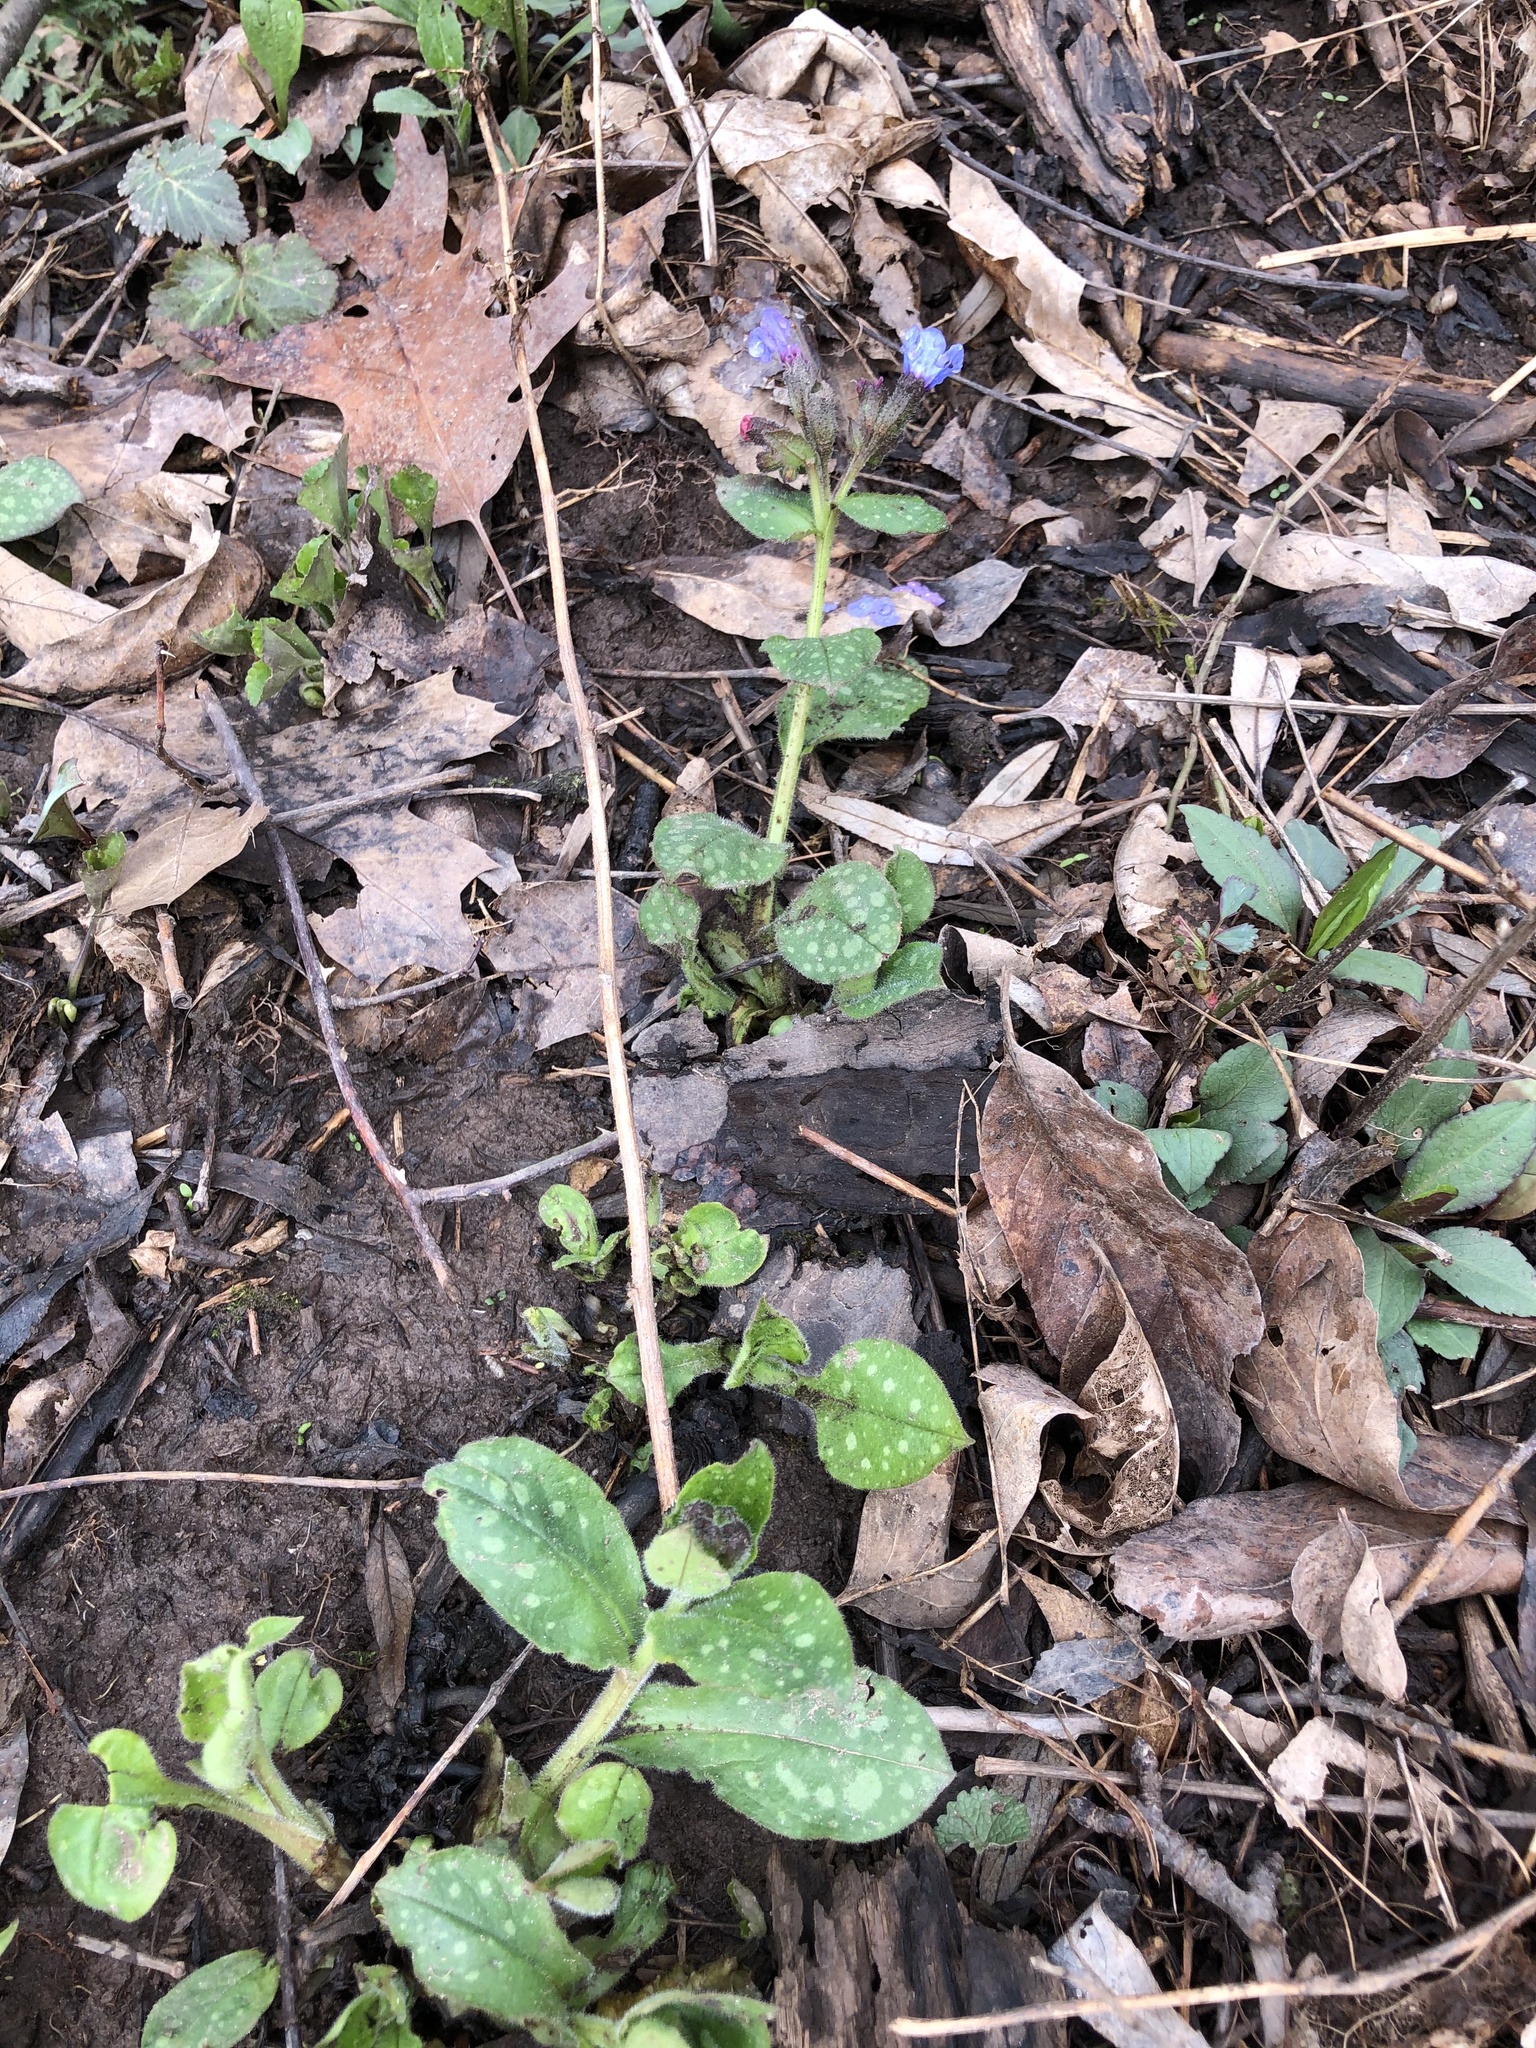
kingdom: Plantae
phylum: Tracheophyta
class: Magnoliopsida
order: Boraginales
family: Boraginaceae
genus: Pulmonaria
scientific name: Pulmonaria officinalis
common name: Lungwort
